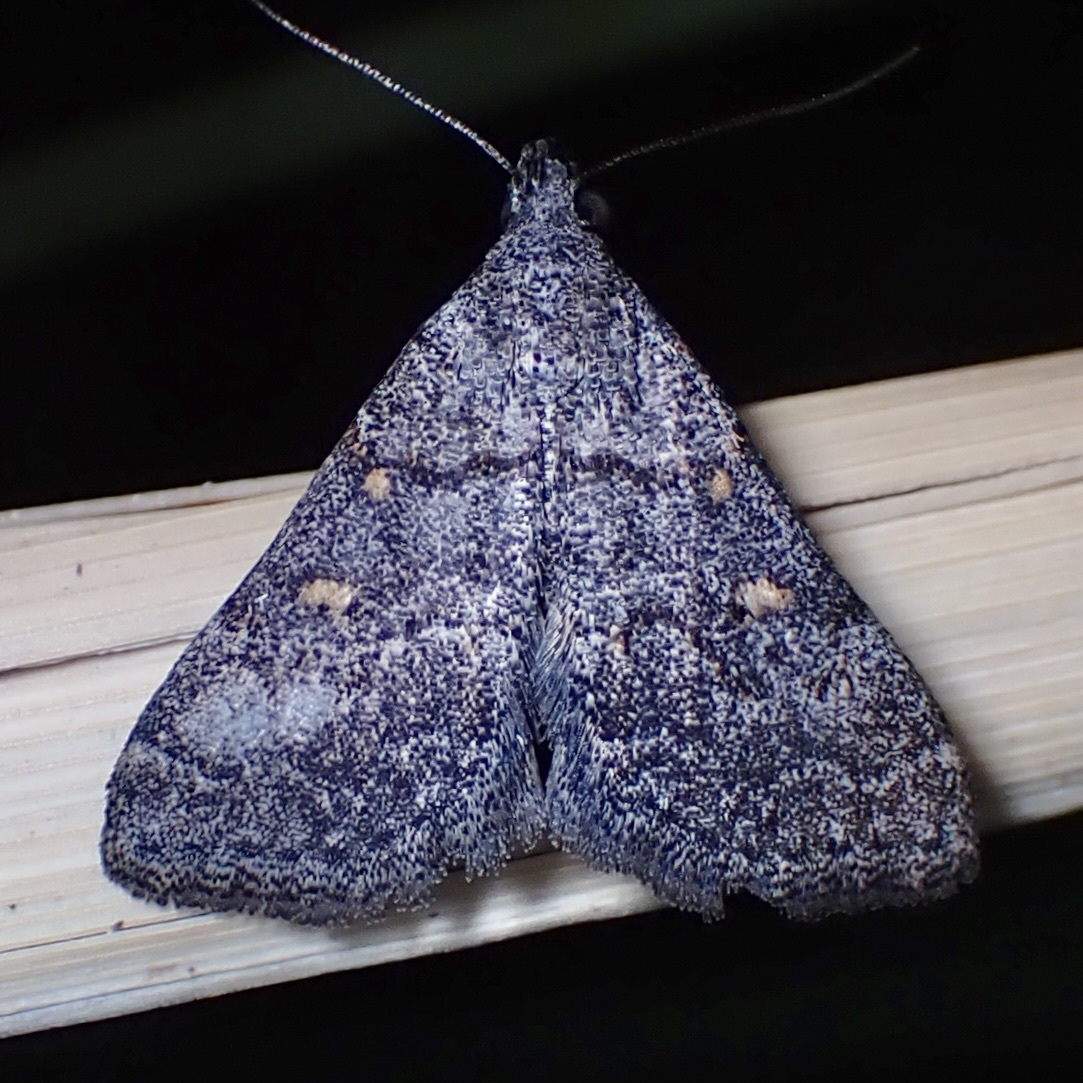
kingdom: Animalia
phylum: Arthropoda
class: Insecta
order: Lepidoptera
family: Erebidae
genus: Bleptina
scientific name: Bleptina minimalis
